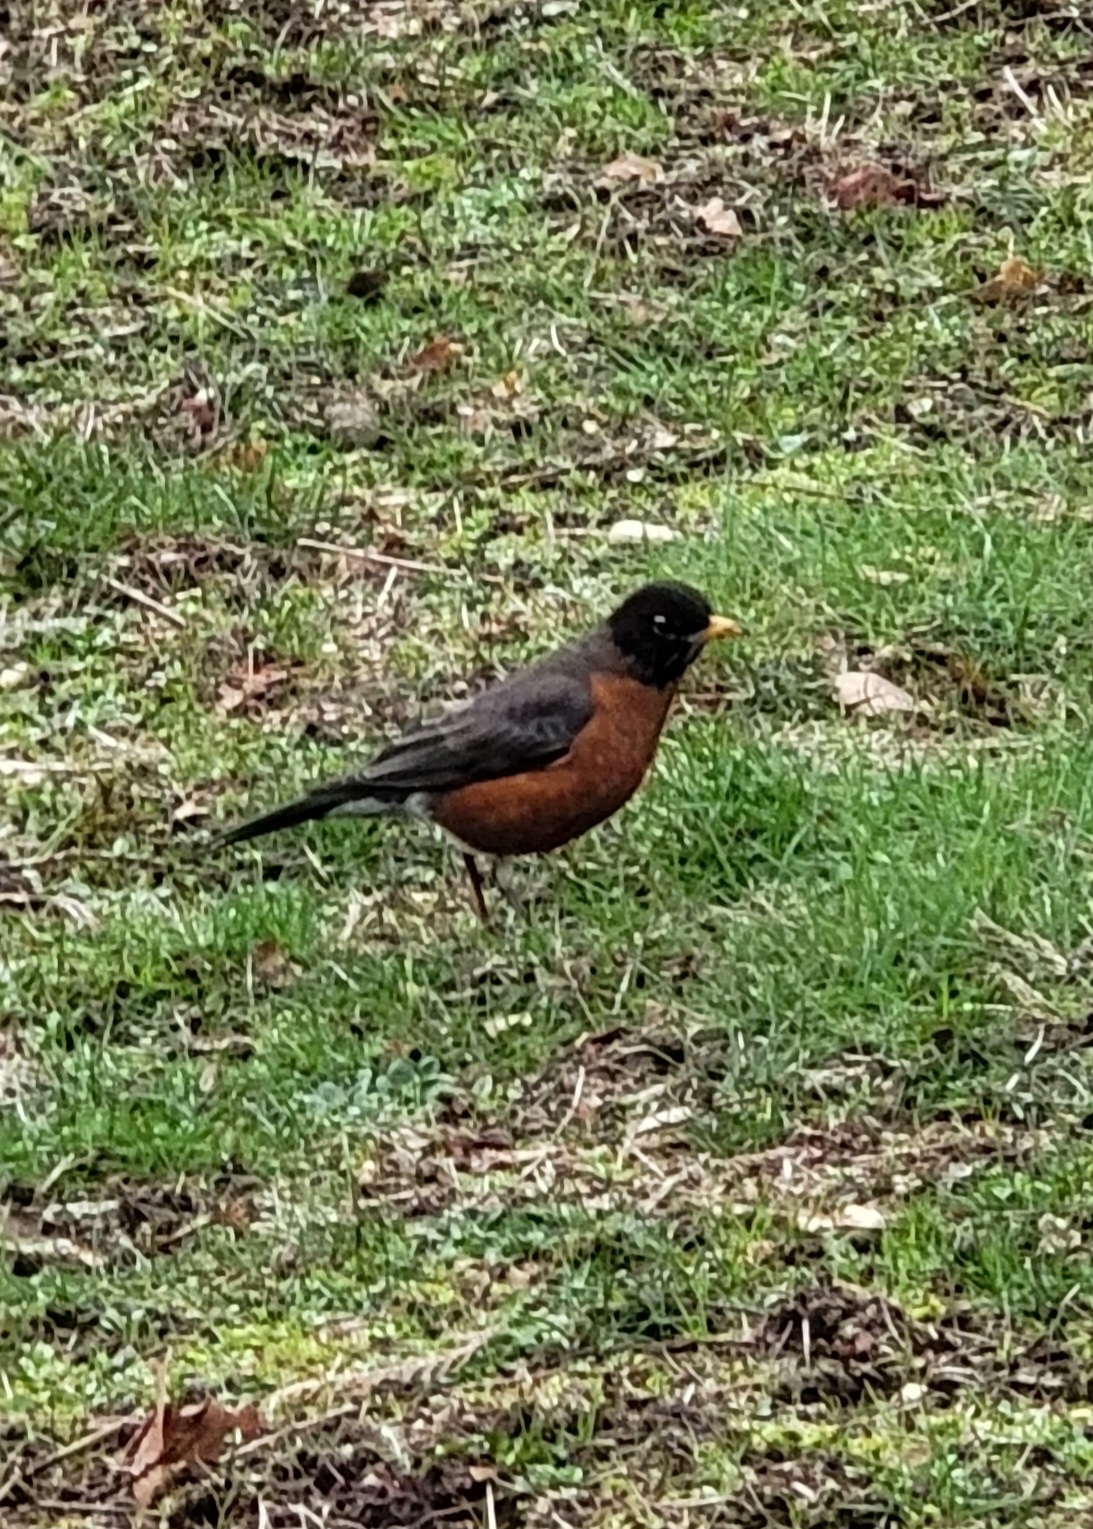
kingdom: Animalia
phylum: Chordata
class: Aves
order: Passeriformes
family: Turdidae
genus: Turdus
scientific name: Turdus migratorius
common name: American robin
